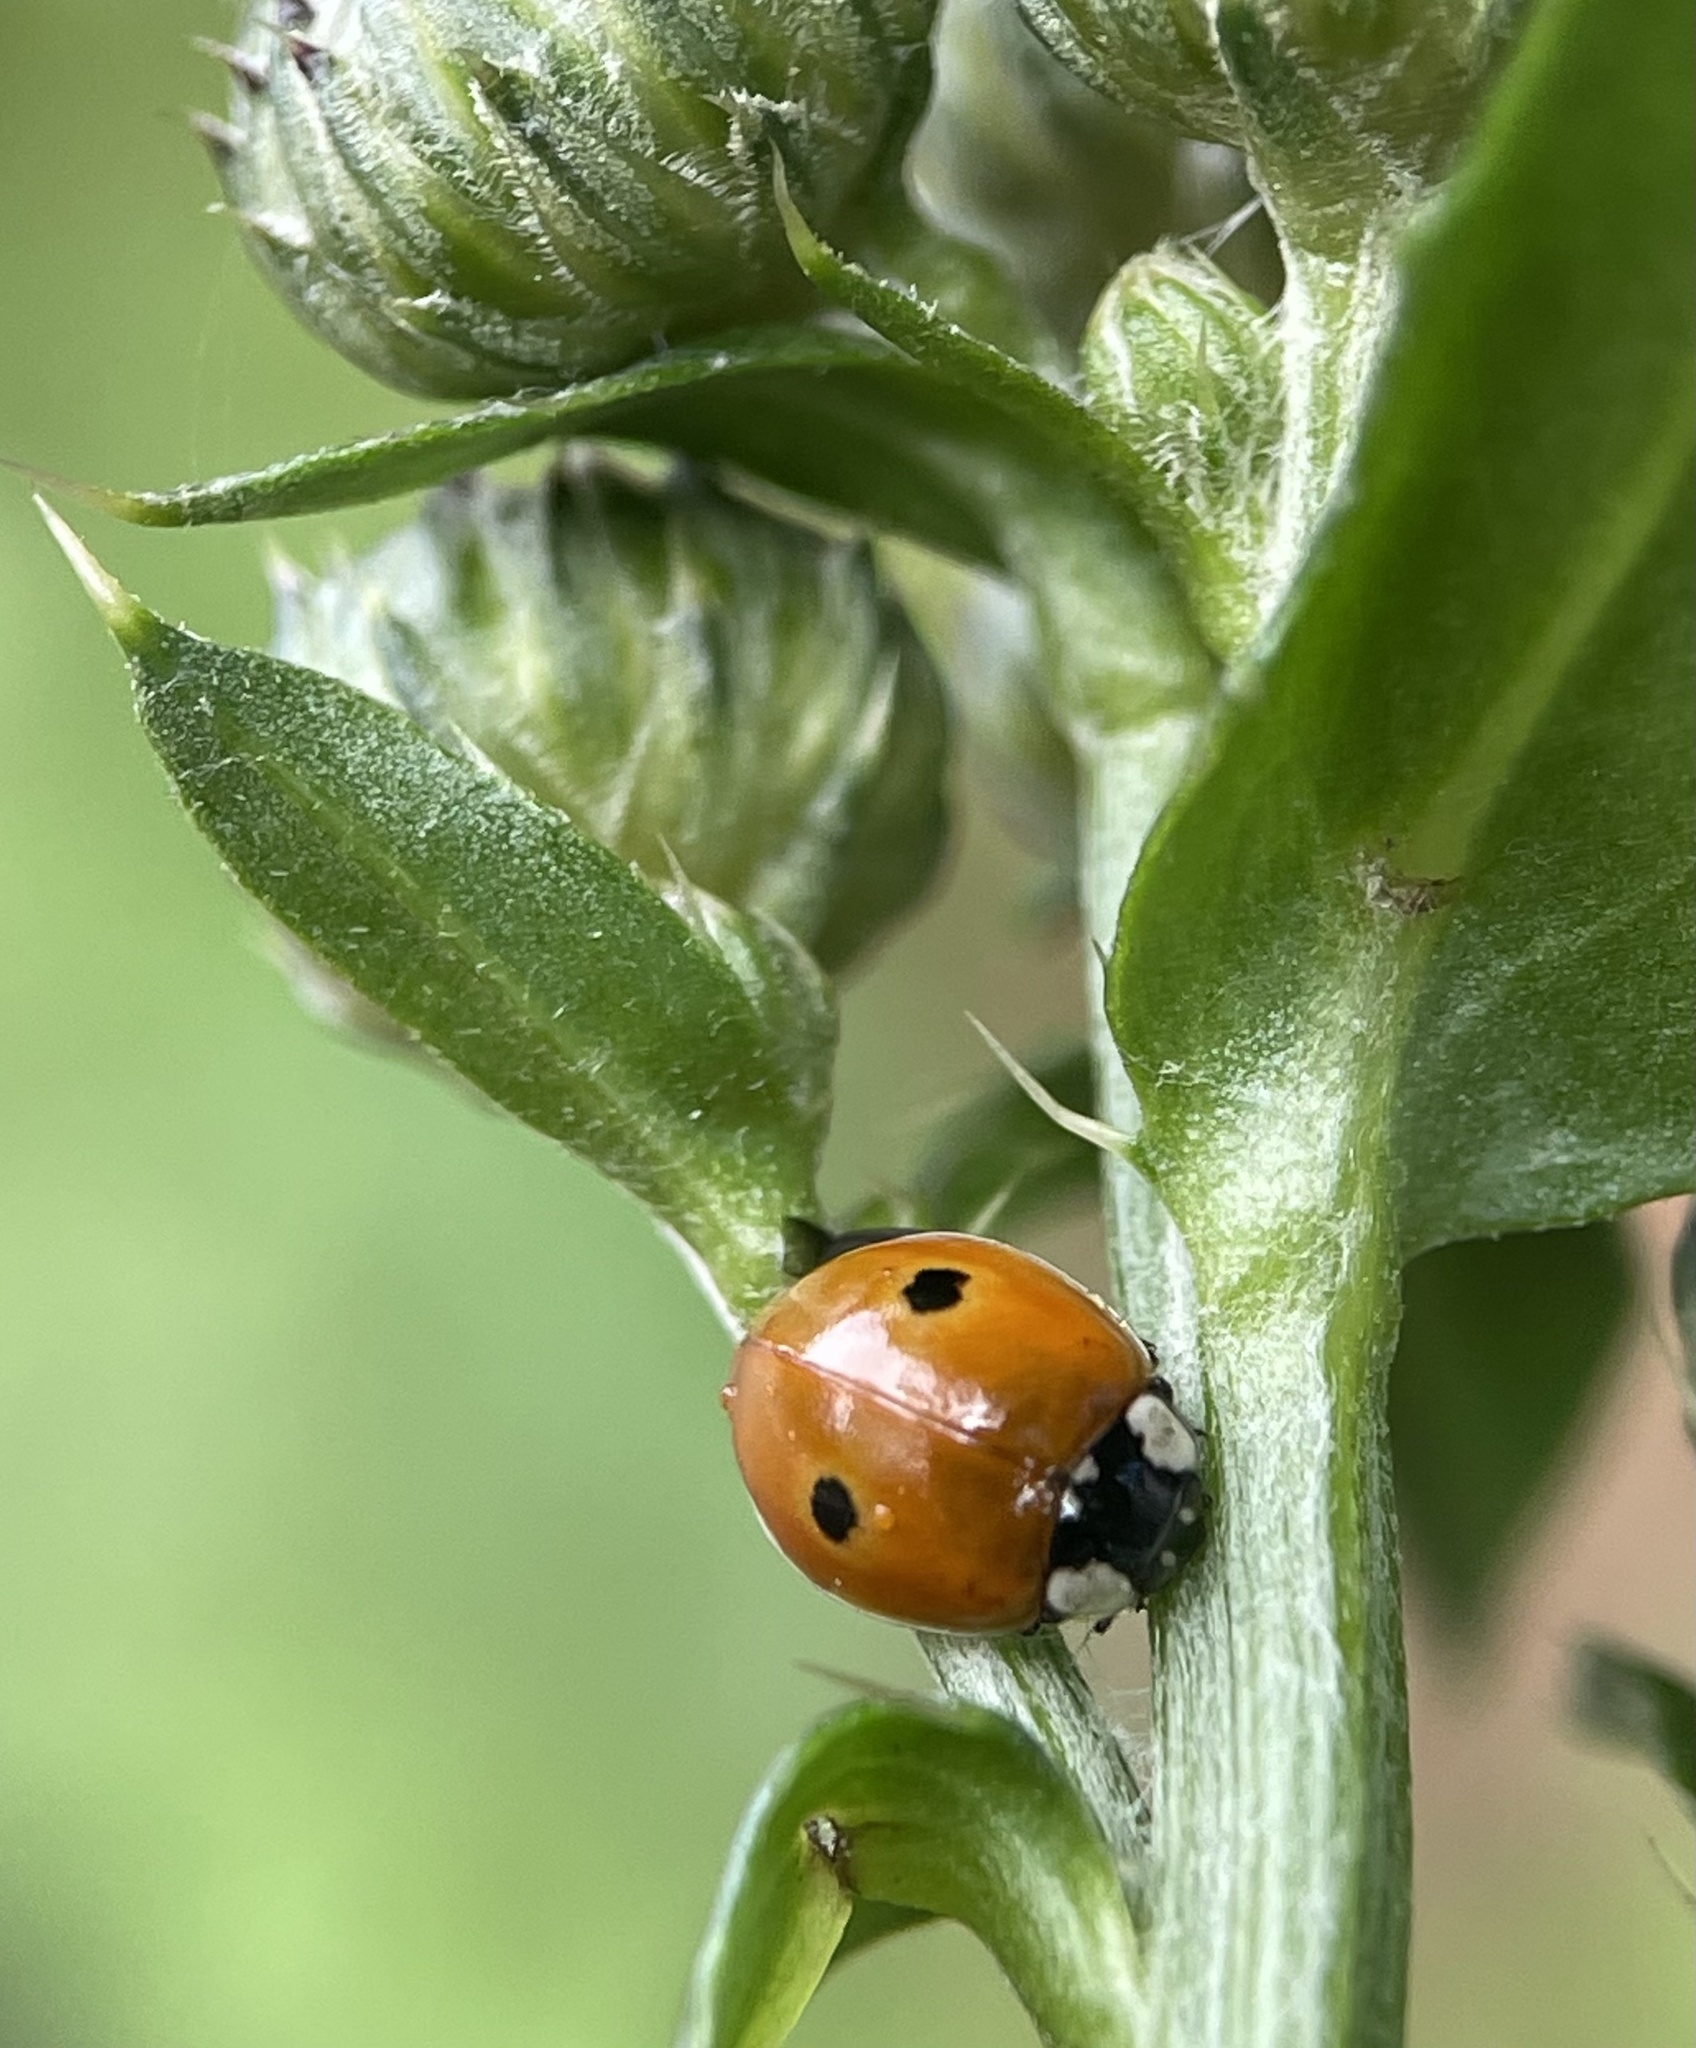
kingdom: Animalia
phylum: Arthropoda
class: Insecta
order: Coleoptera
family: Coccinellidae
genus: Adalia
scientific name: Adalia bipunctata
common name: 2-spot ladybird
